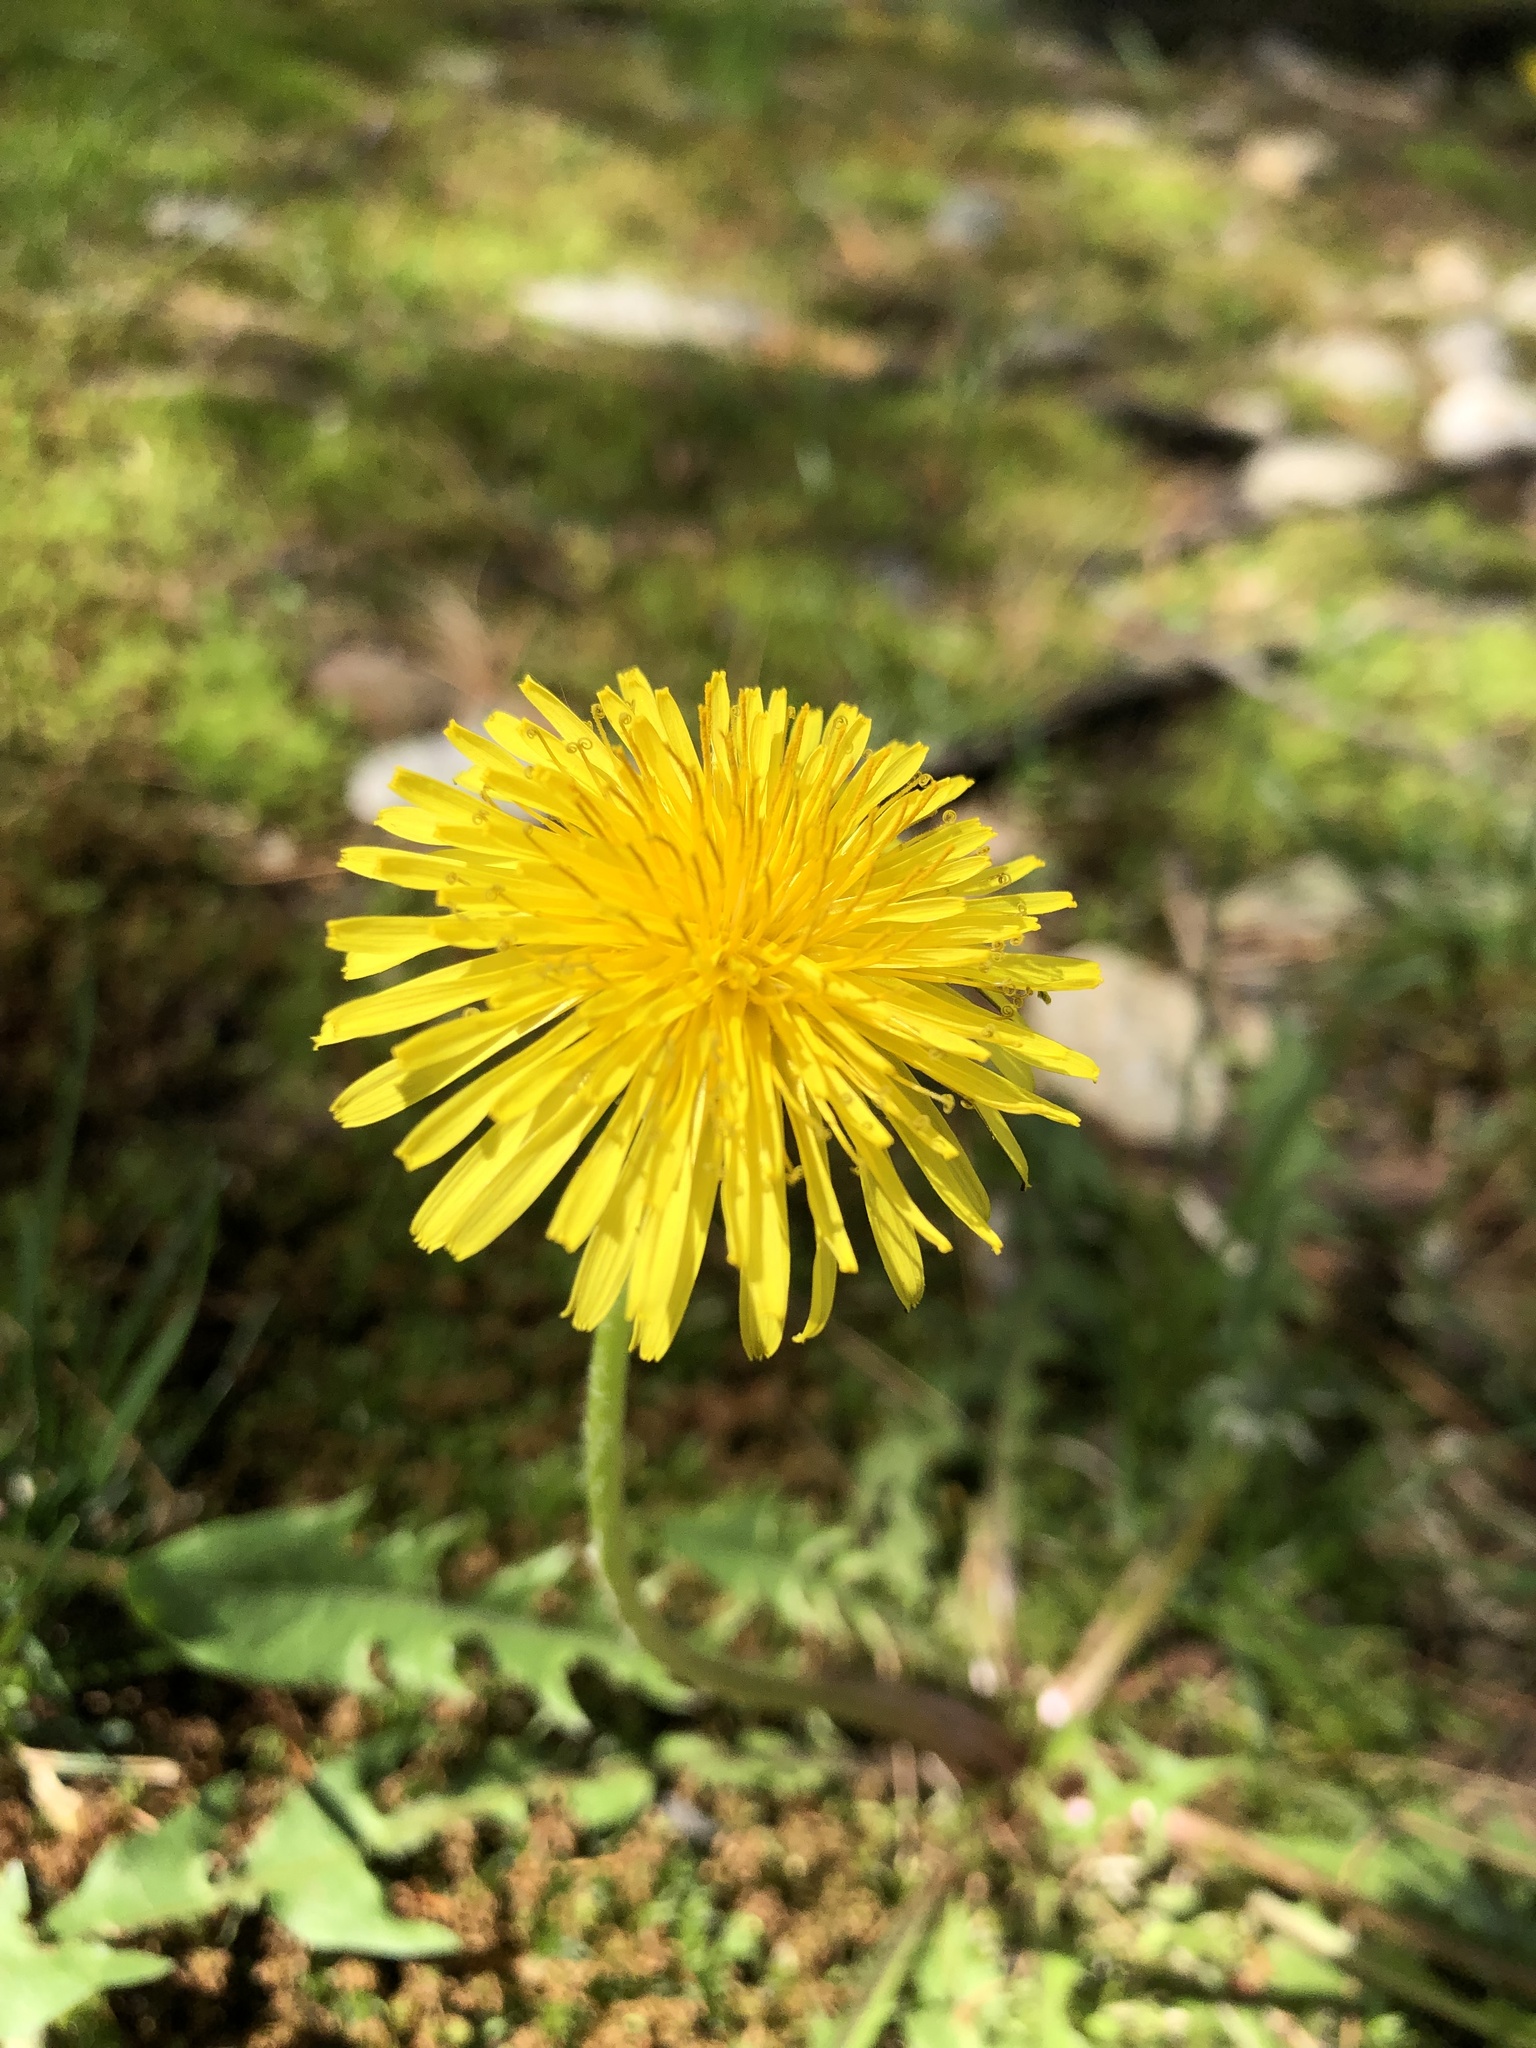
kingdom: Plantae
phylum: Tracheophyta
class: Magnoliopsida
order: Asterales
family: Asteraceae
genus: Taraxacum
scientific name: Taraxacum officinale
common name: Common dandelion
